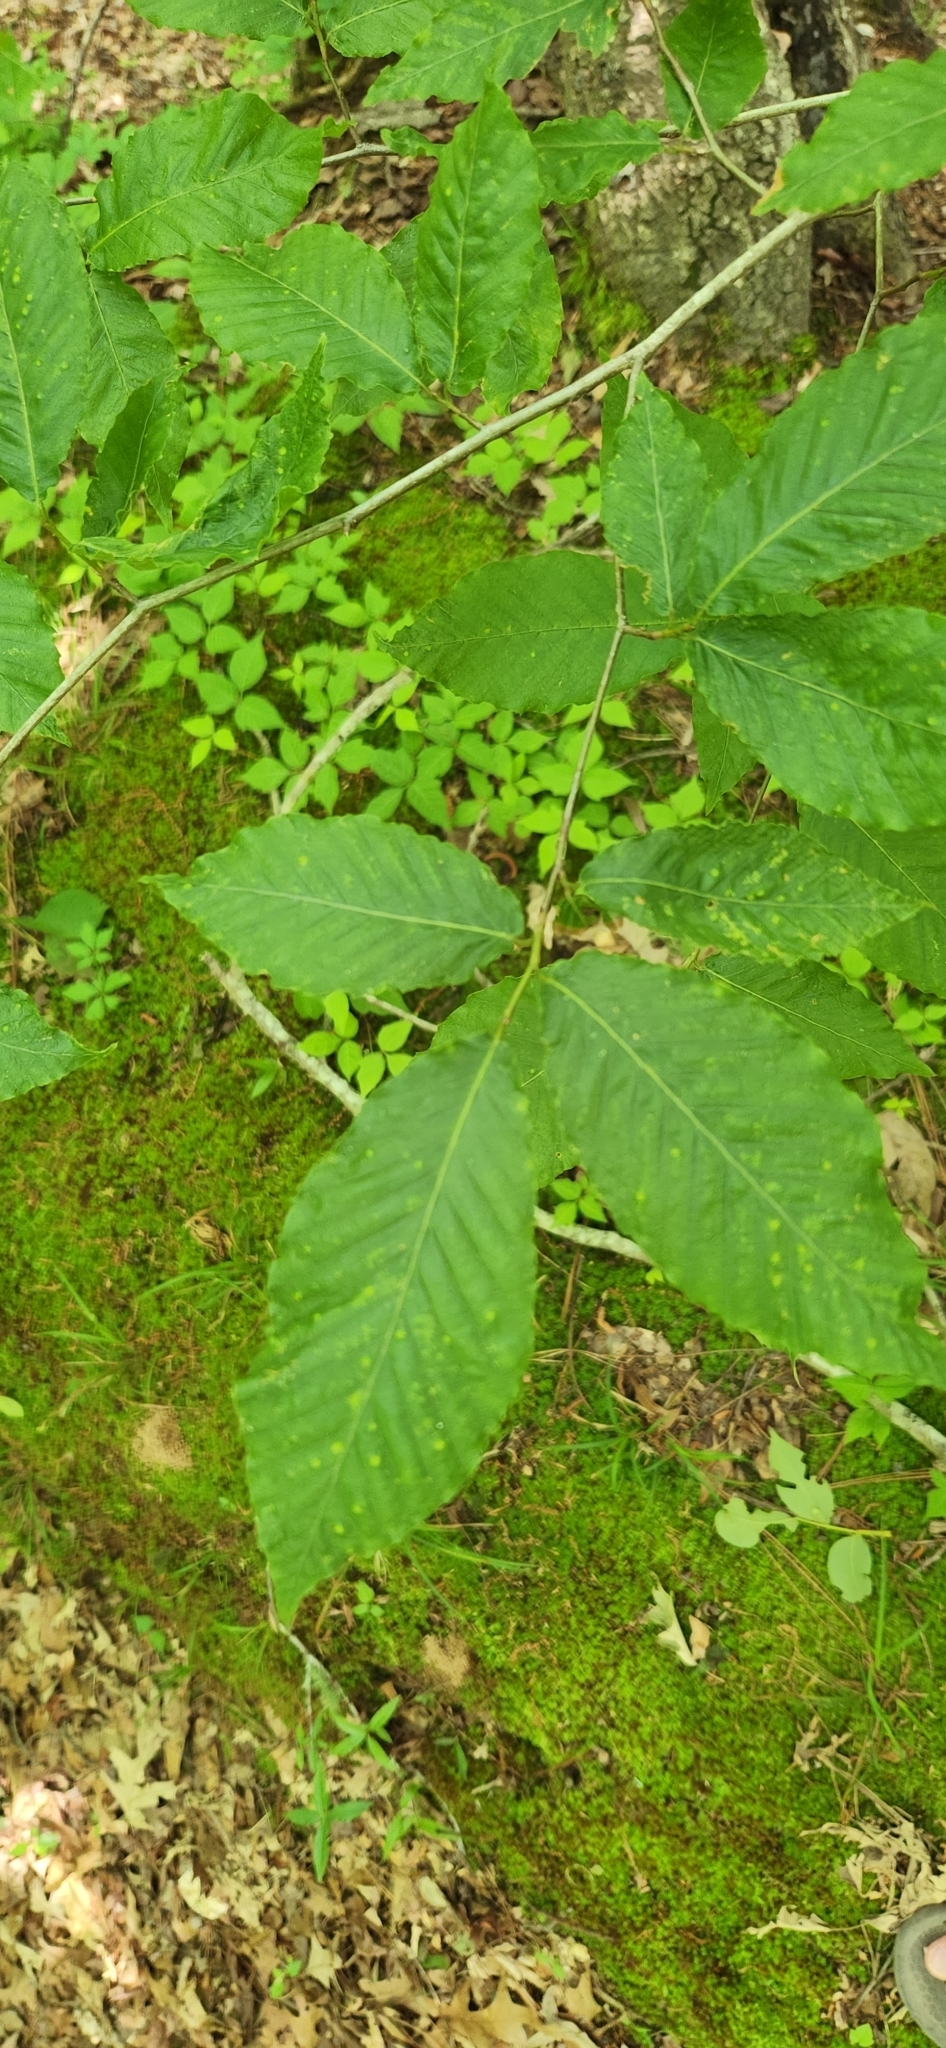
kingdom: Plantae
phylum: Tracheophyta
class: Magnoliopsida
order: Fagales
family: Fagaceae
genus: Fagus
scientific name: Fagus grandifolia
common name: American beech
